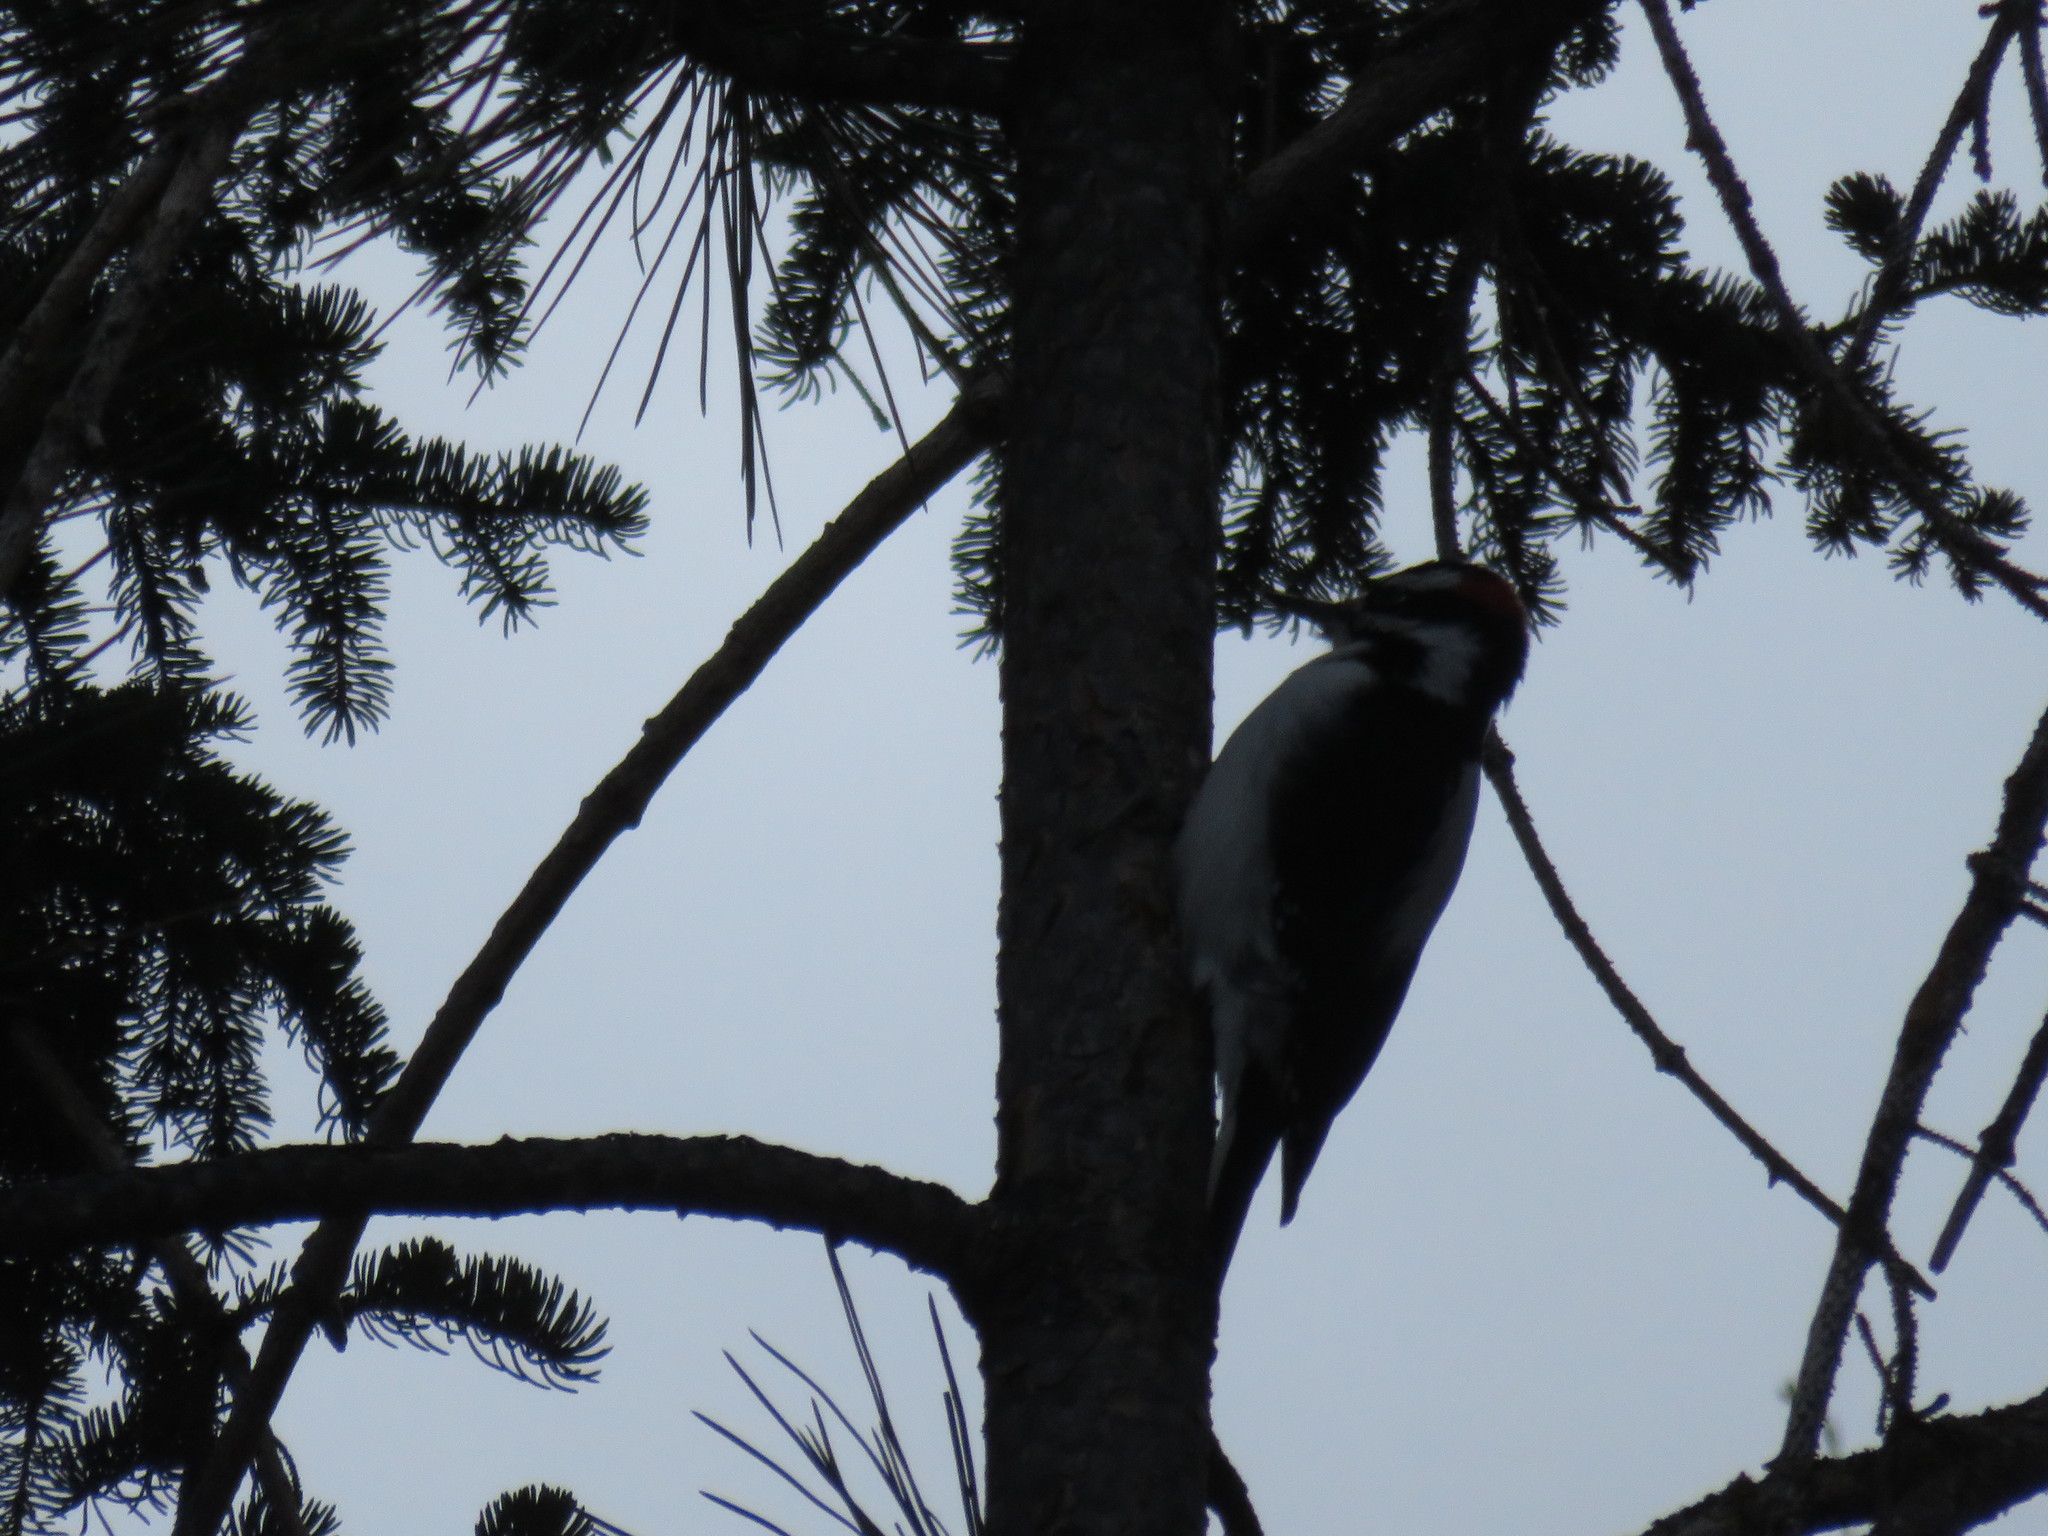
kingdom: Animalia
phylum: Chordata
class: Aves
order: Piciformes
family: Picidae
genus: Leuconotopicus
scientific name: Leuconotopicus villosus
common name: Hairy woodpecker
